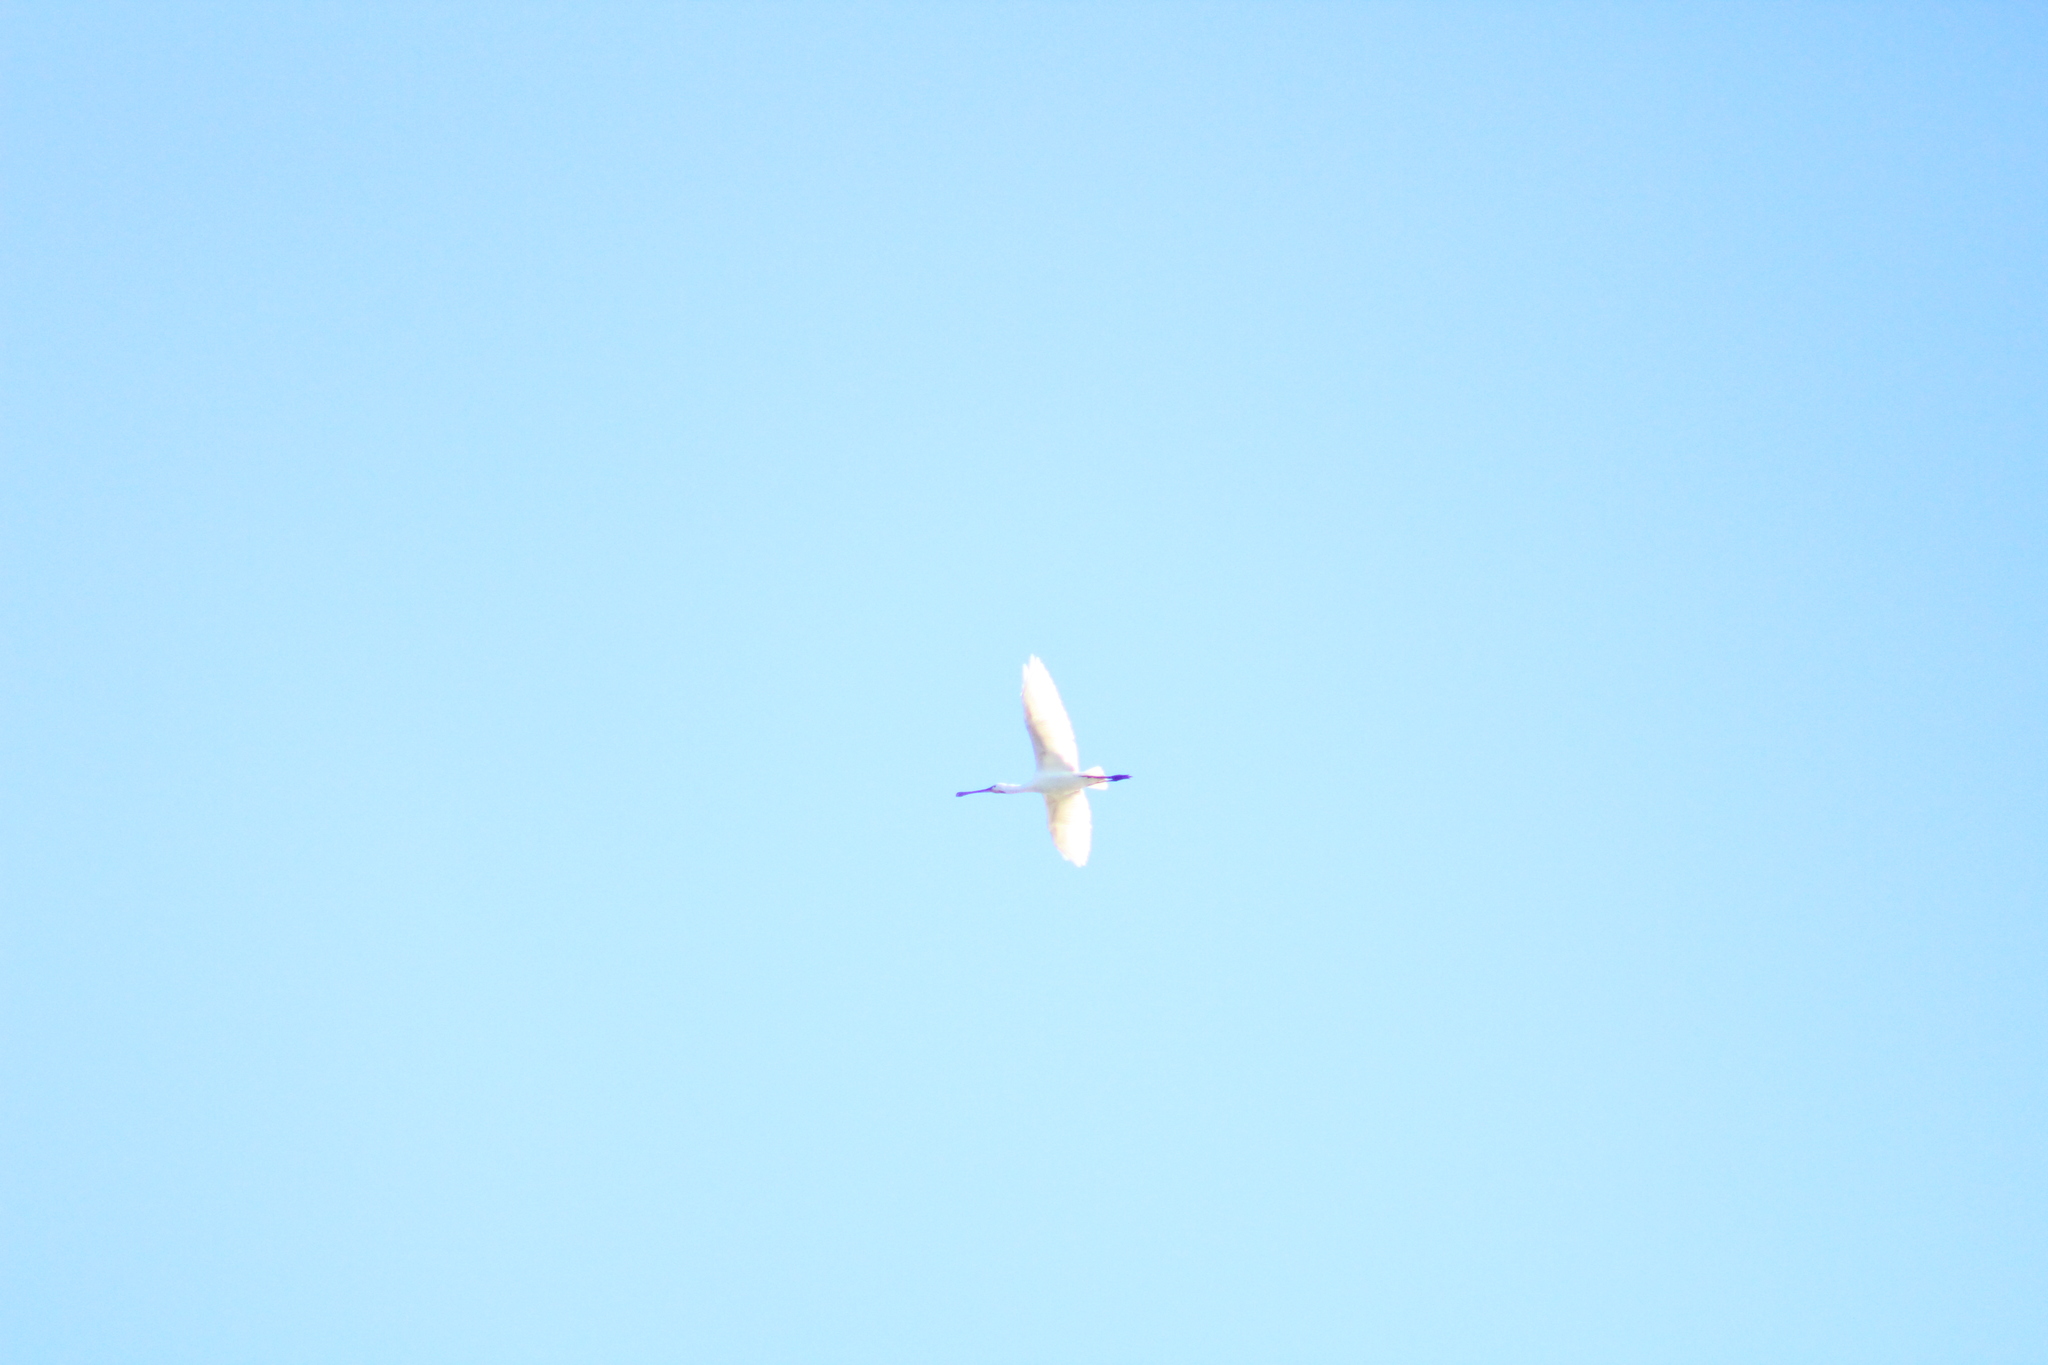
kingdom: Animalia
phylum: Chordata
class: Aves
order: Pelecaniformes
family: Threskiornithidae
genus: Platalea
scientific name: Platalea leucorodia
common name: Eurasian spoonbill
